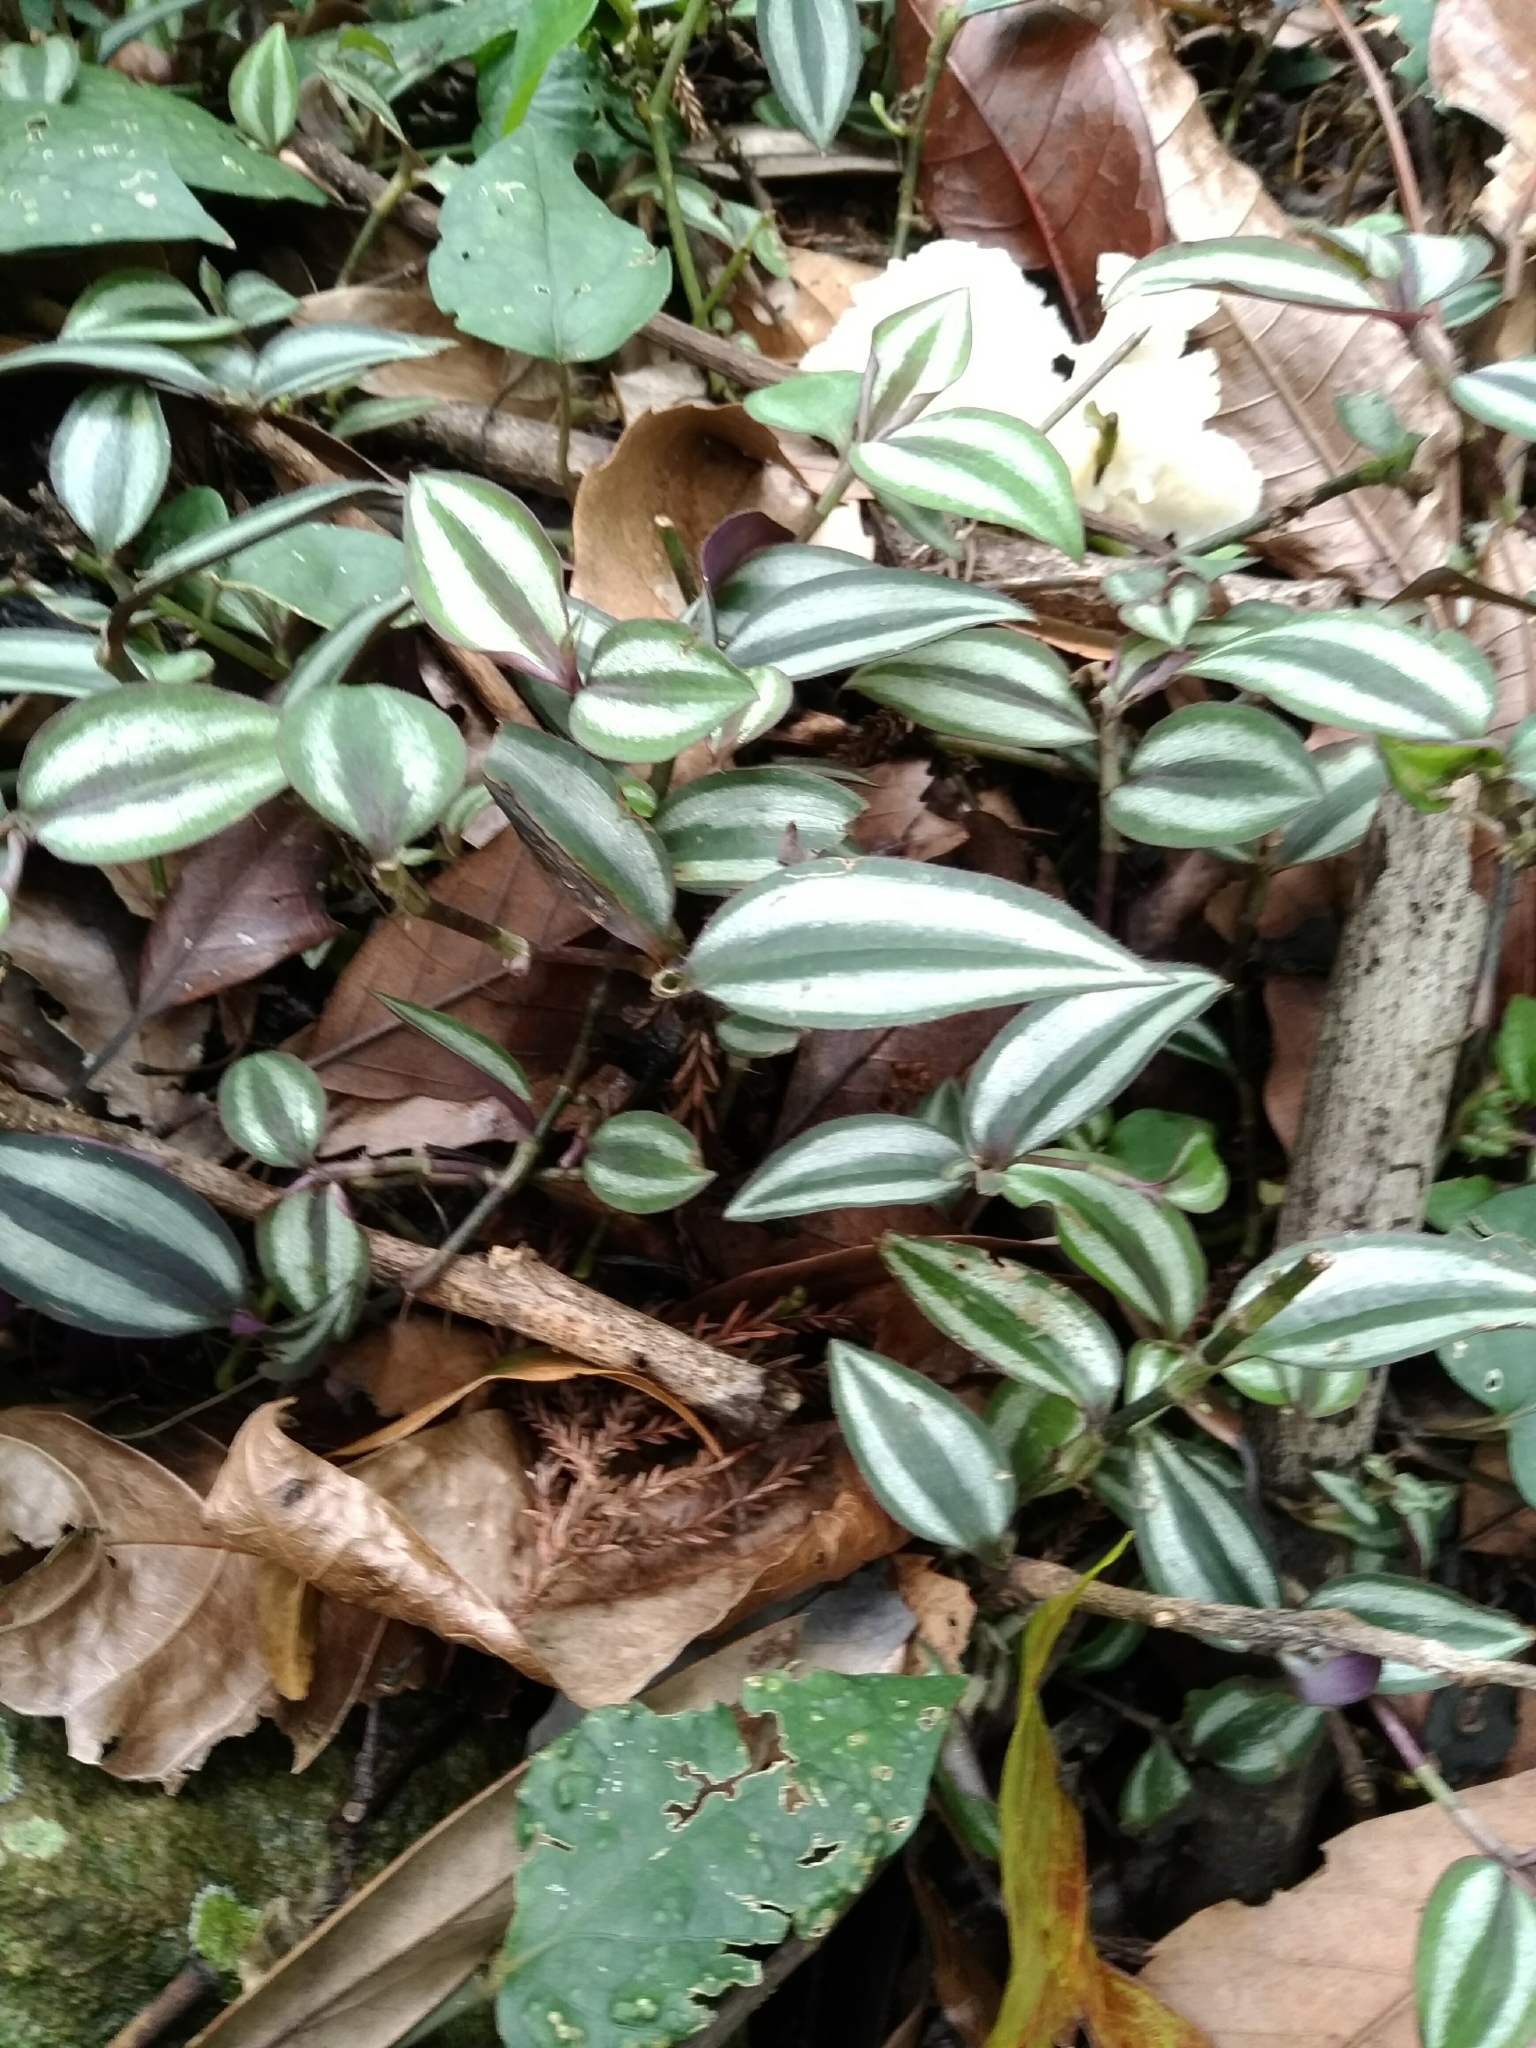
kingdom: Plantae
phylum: Tracheophyta
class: Liliopsida
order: Commelinales
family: Commelinaceae
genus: Tradescantia
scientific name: Tradescantia zebrina
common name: Inchplant
